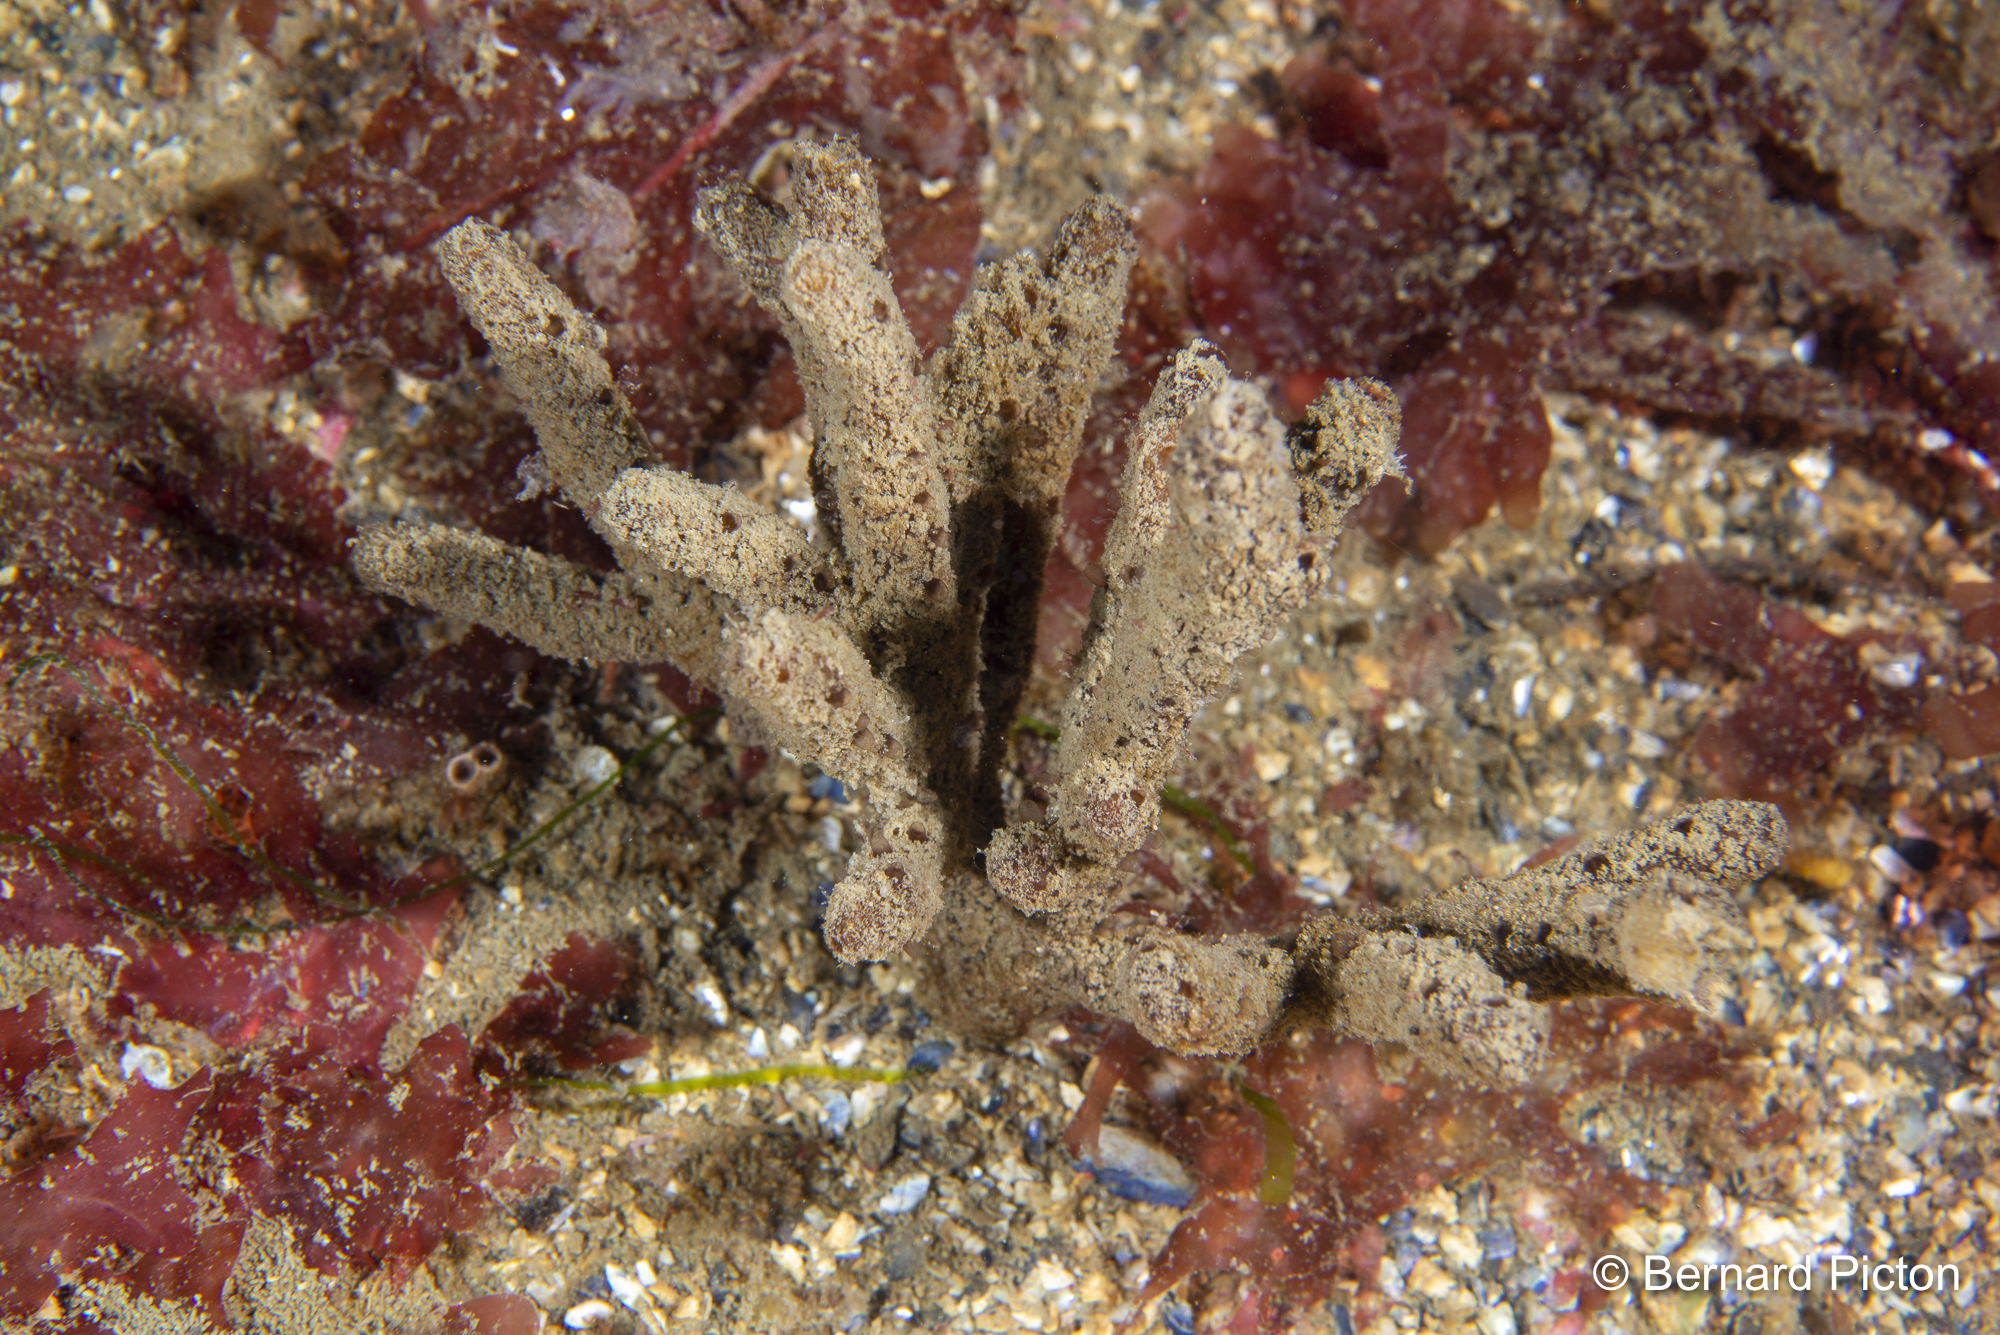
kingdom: Animalia
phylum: Porifera
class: Demospongiae
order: Axinellida
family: Raspailiidae
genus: Raspailia
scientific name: Raspailia ramosa
